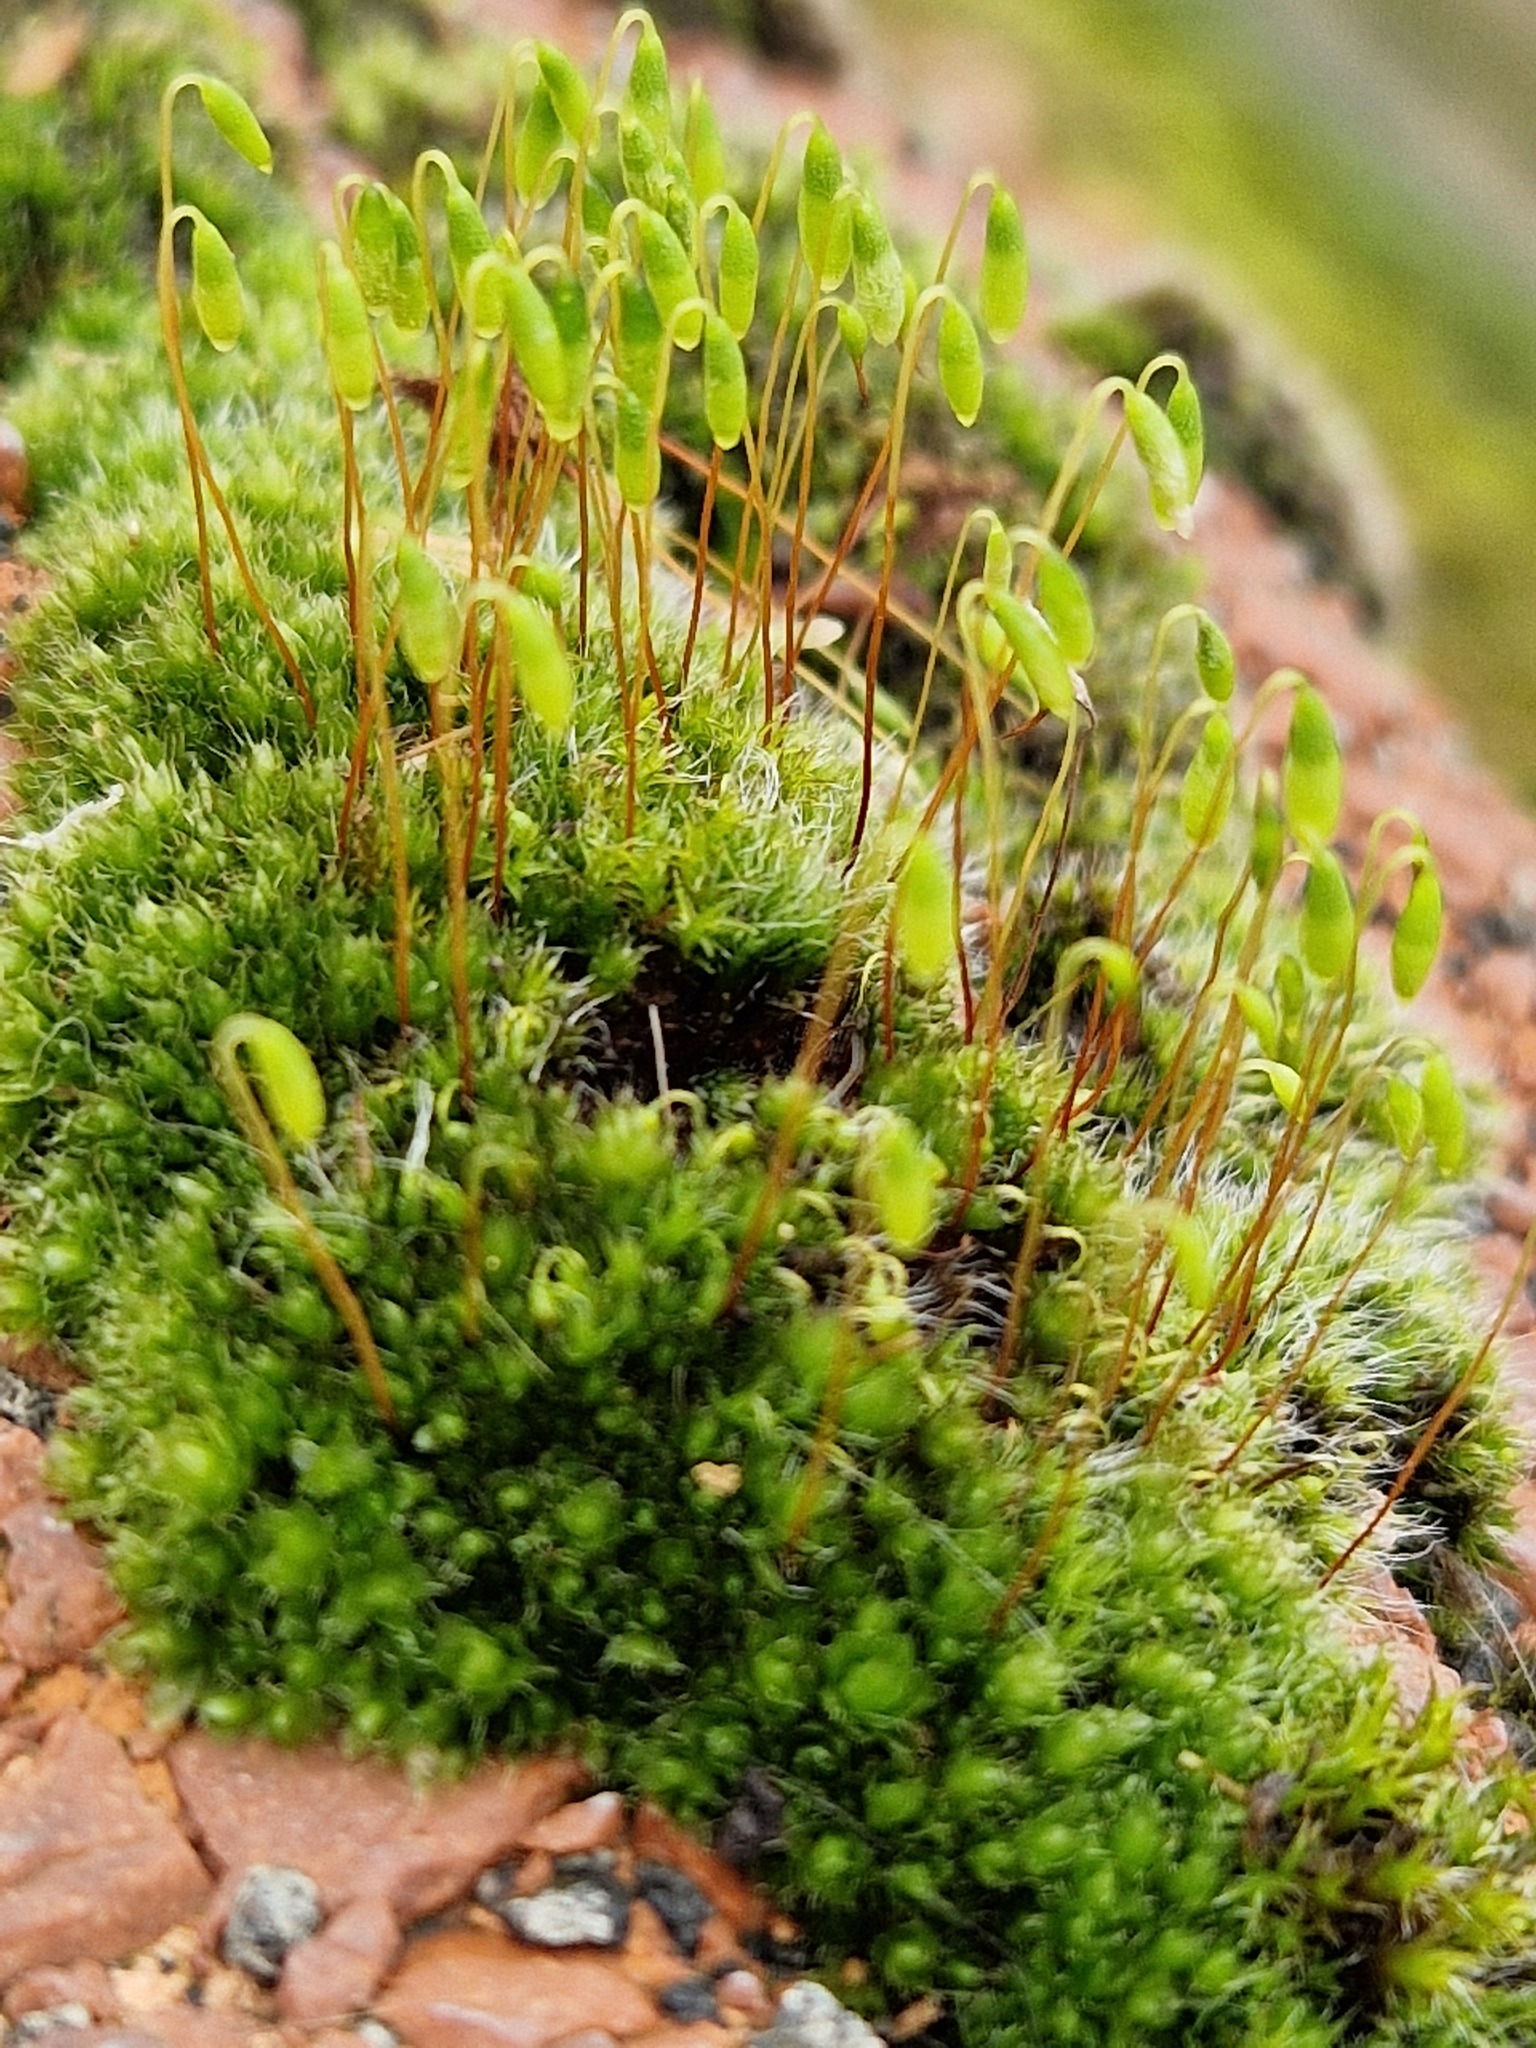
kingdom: Plantae
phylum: Bryophyta
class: Bryopsida
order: Bryales
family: Bryaceae
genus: Rosulabryum
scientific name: Rosulabryum capillare
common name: Capillary thread-moss
